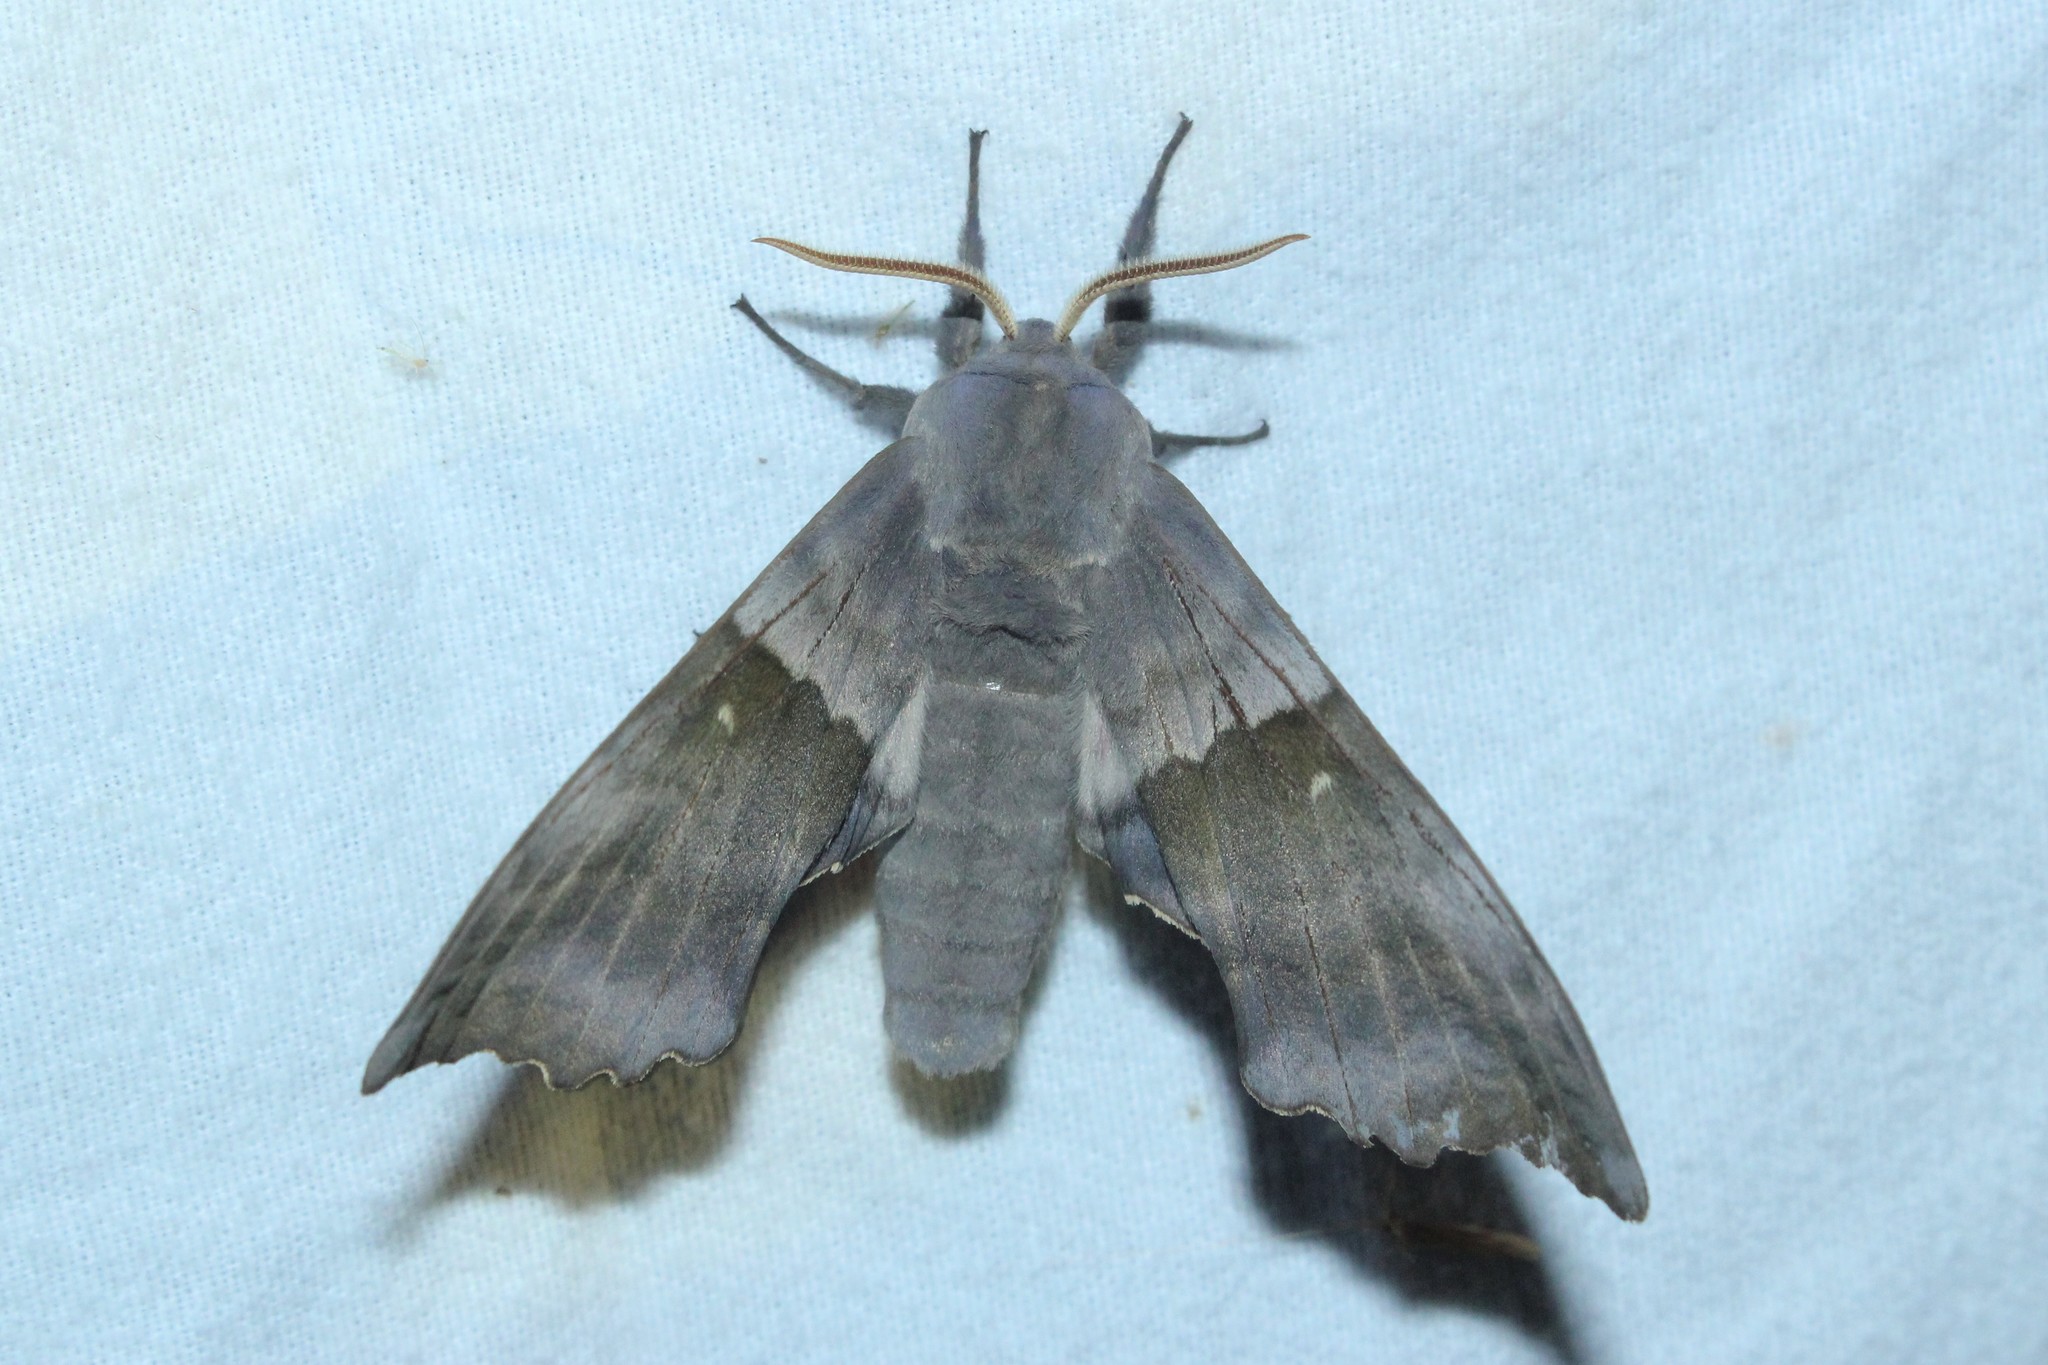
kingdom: Animalia
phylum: Arthropoda
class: Insecta
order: Lepidoptera
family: Sphingidae
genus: Pachysphinx
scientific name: Pachysphinx modesta
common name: Big poplar sphinx
